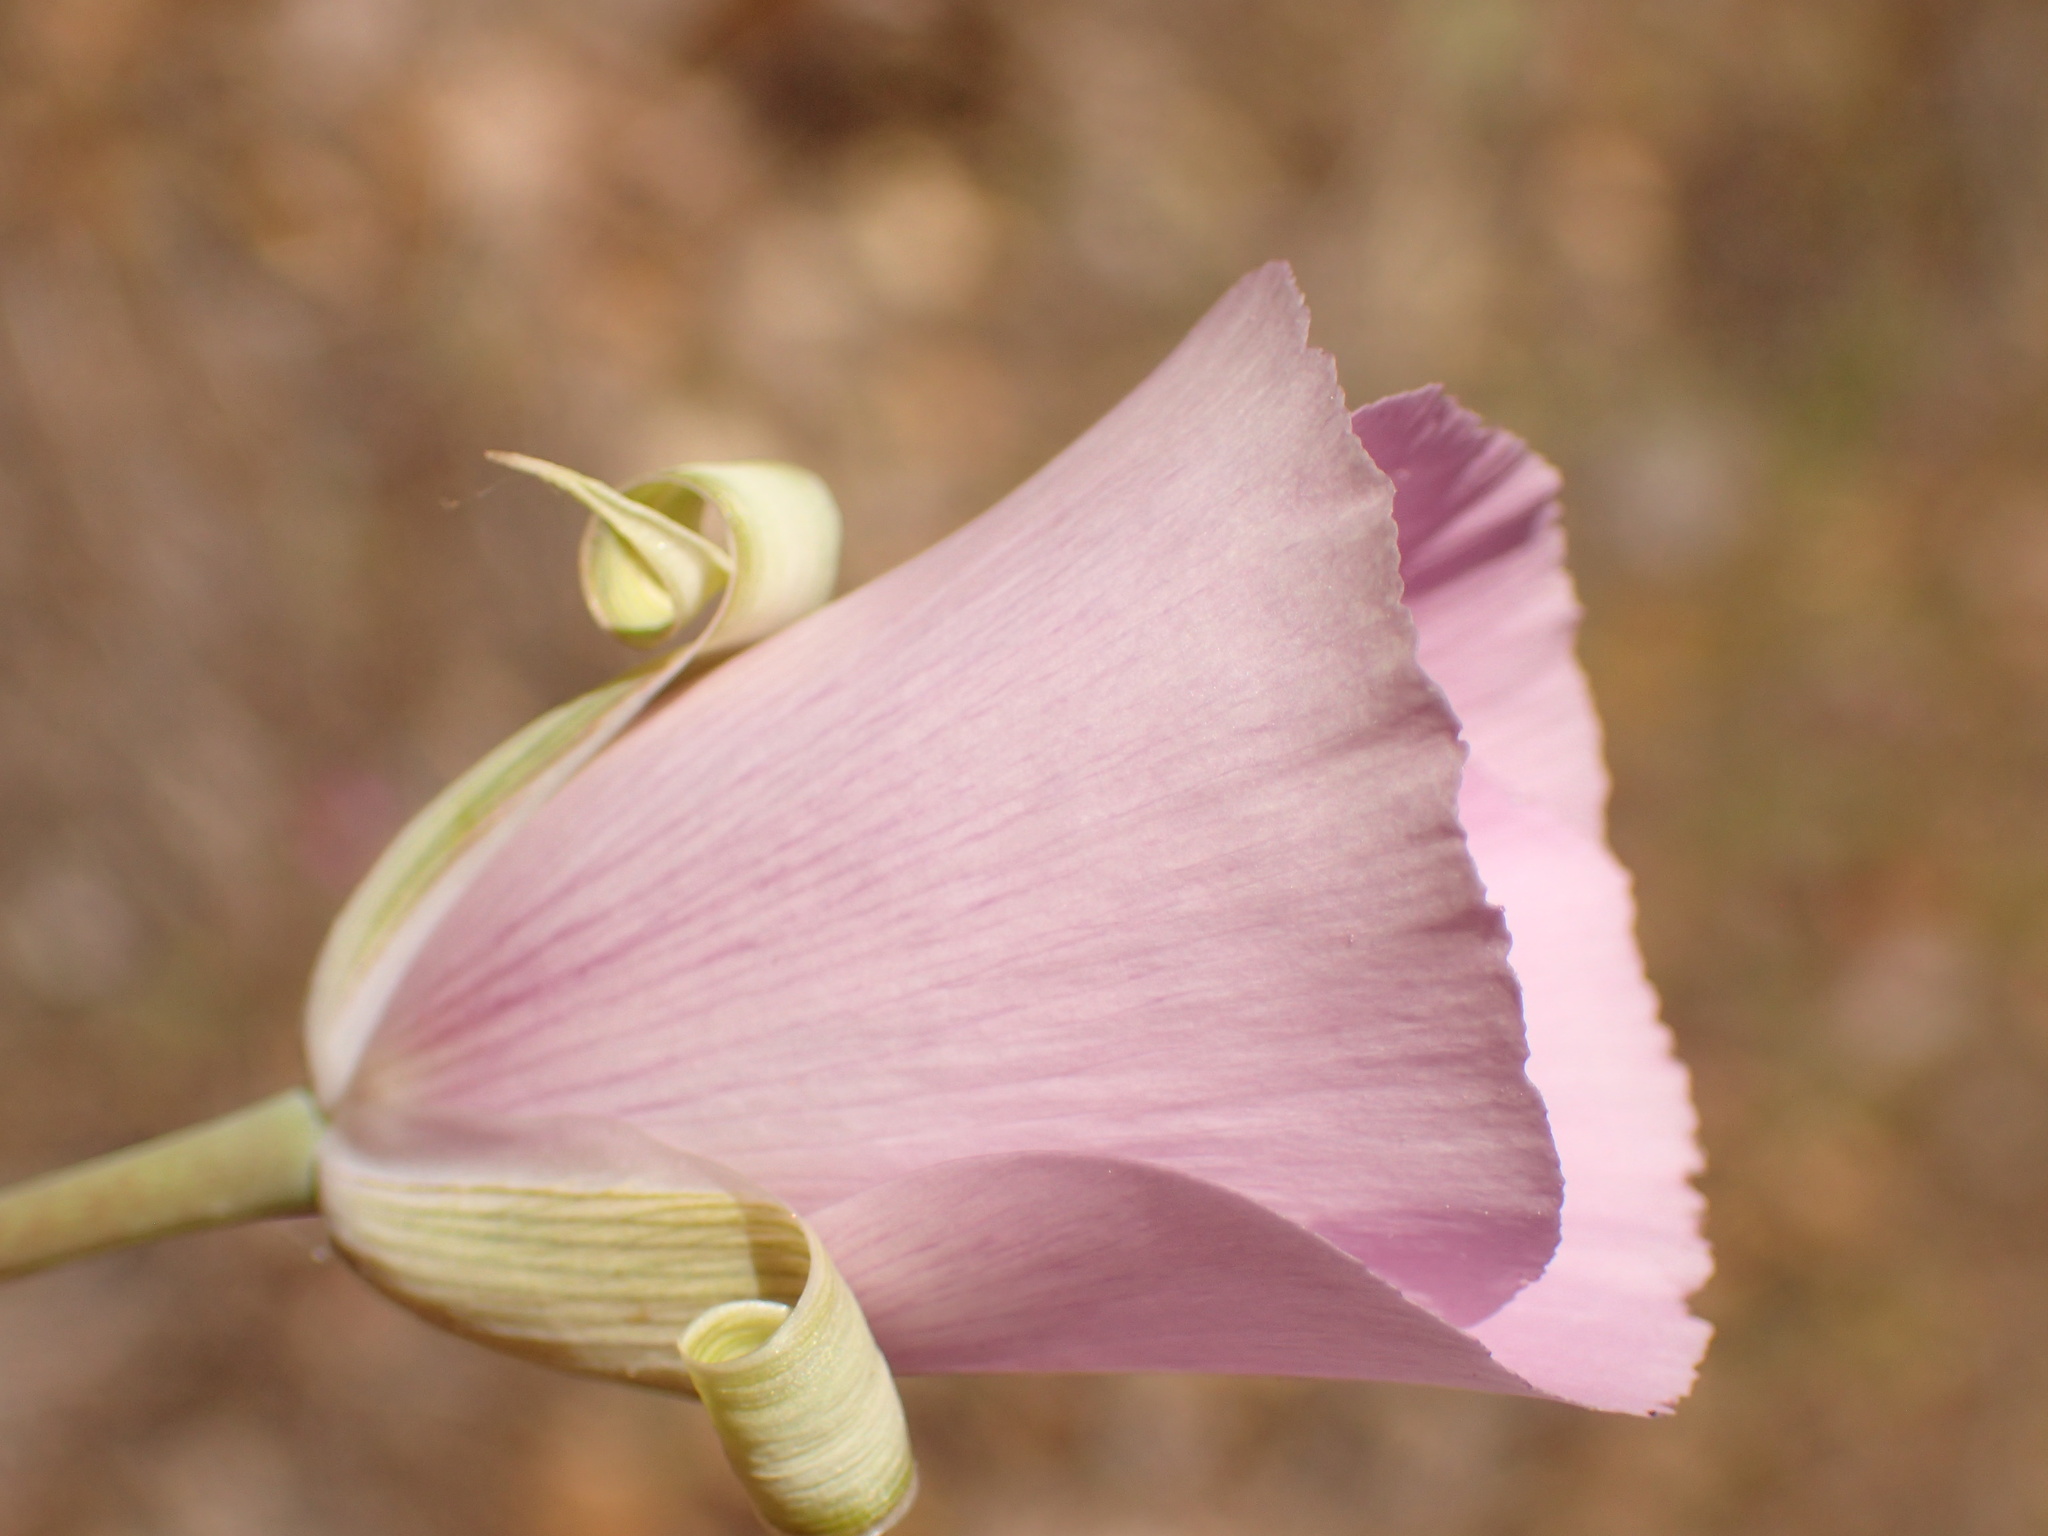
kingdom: Plantae
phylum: Tracheophyta
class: Liliopsida
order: Liliales
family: Liliaceae
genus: Calochortus
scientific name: Calochortus splendens
